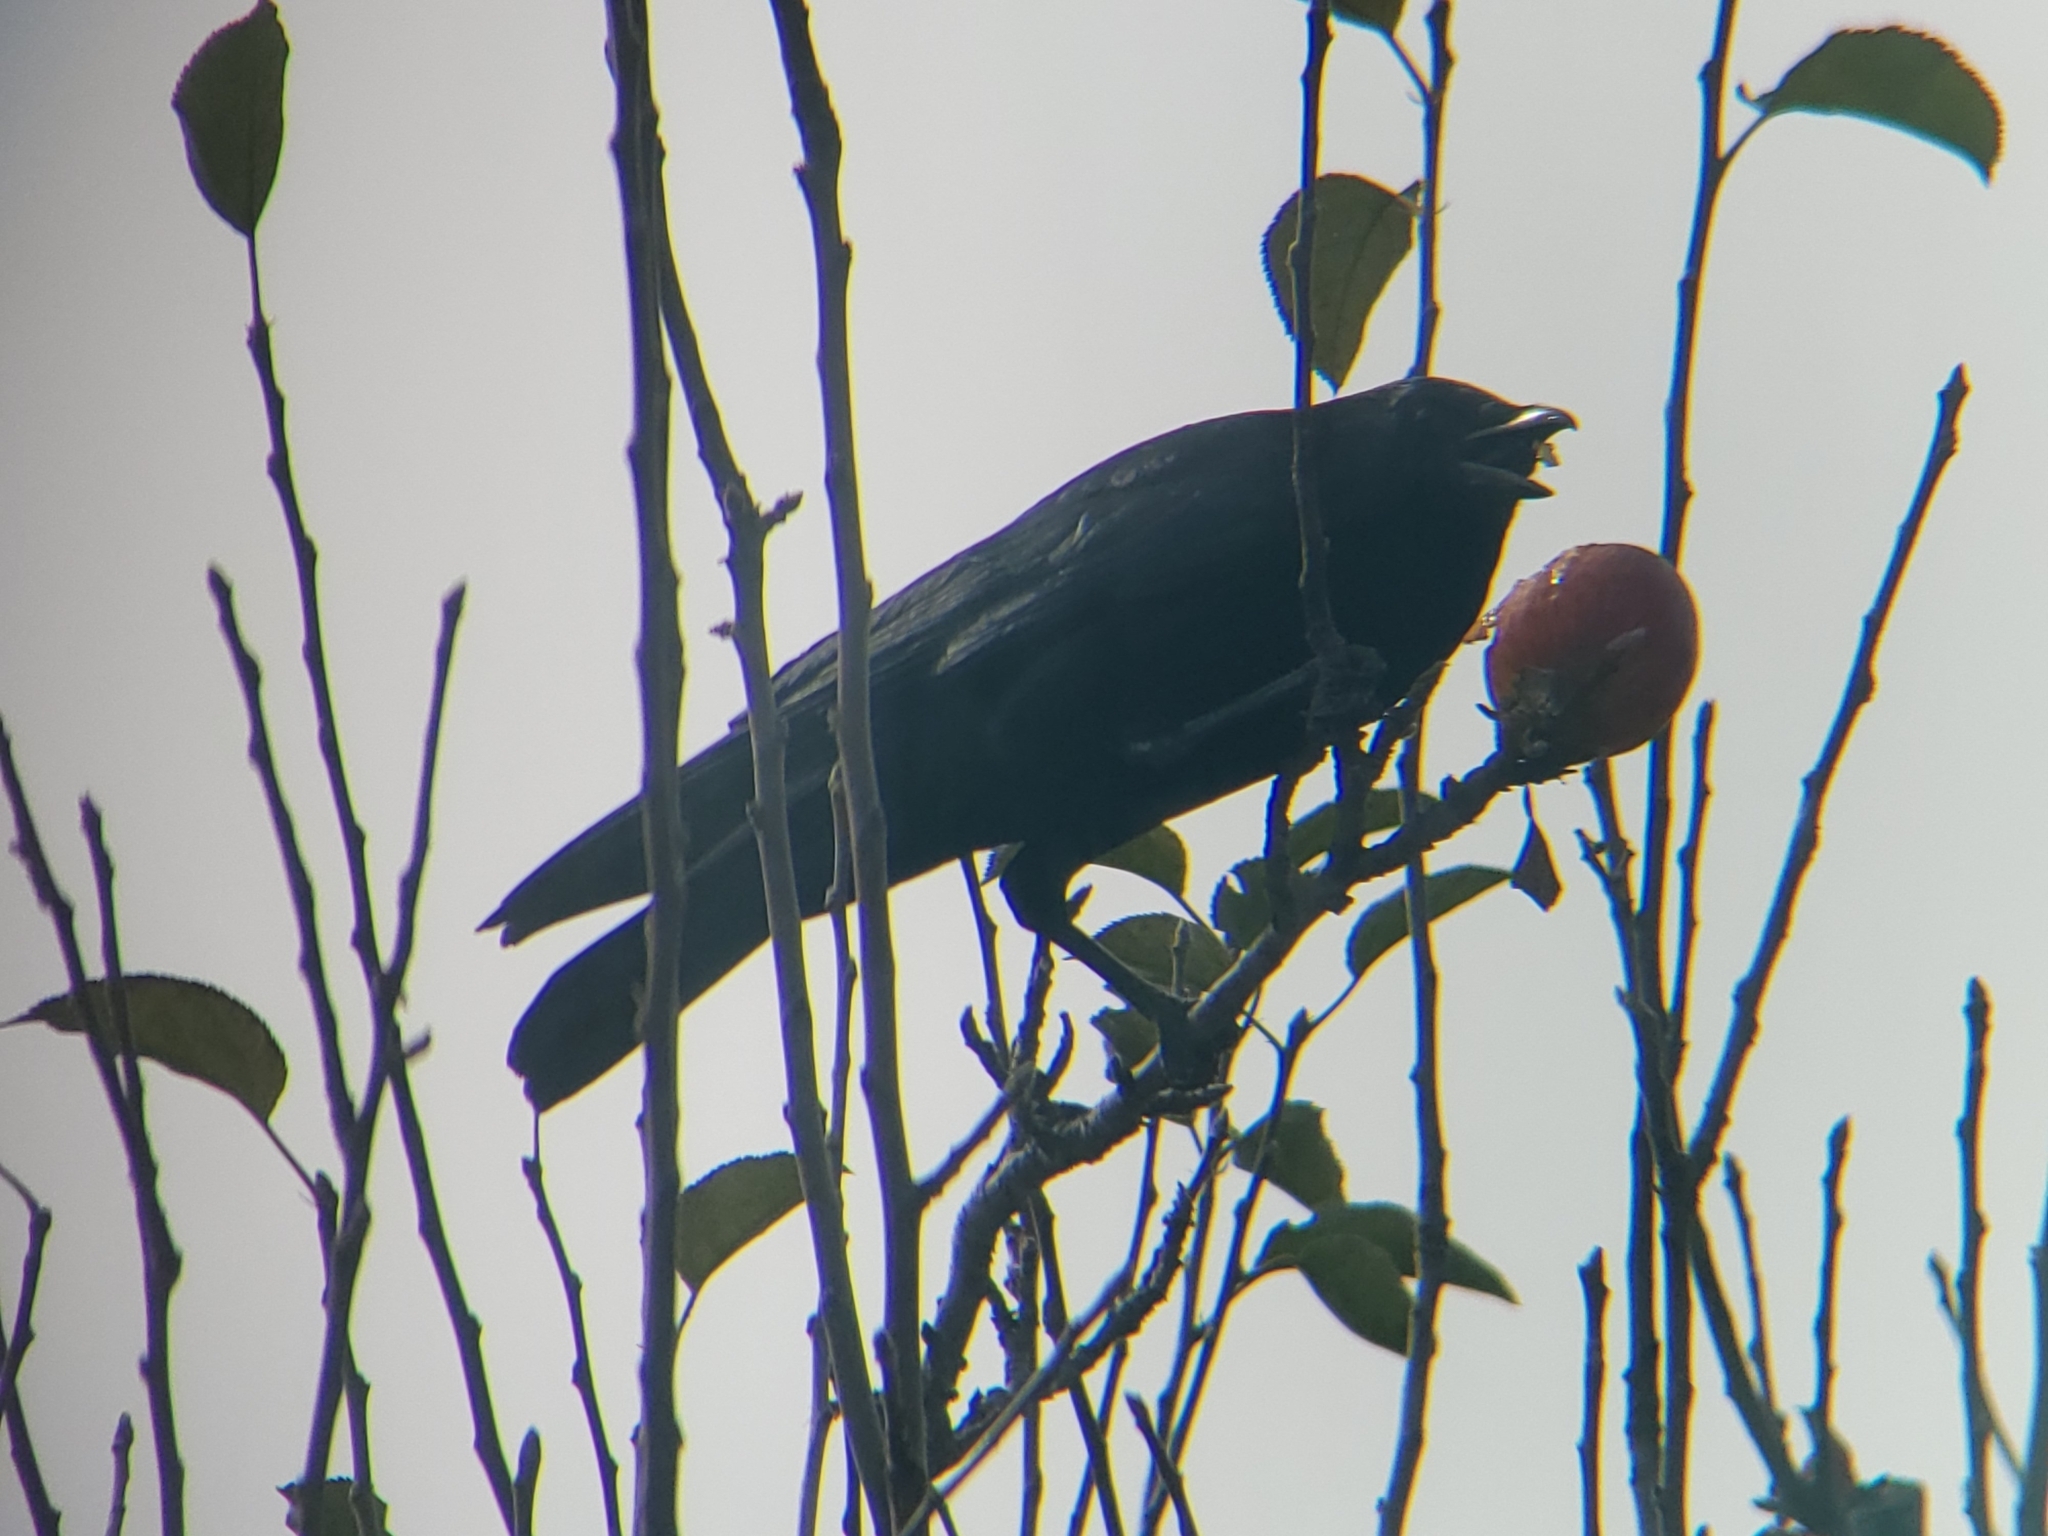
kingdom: Animalia
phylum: Chordata
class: Aves
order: Passeriformes
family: Corvidae
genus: Corvus
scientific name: Corvus brachyrhynchos
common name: American crow
